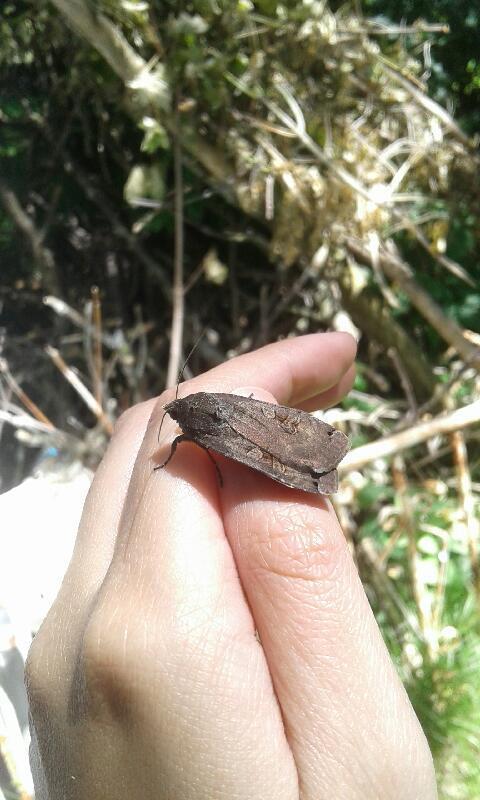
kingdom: Animalia
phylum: Arthropoda
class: Insecta
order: Lepidoptera
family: Noctuidae
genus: Noctua
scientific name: Noctua pronuba
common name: Large yellow underwing
